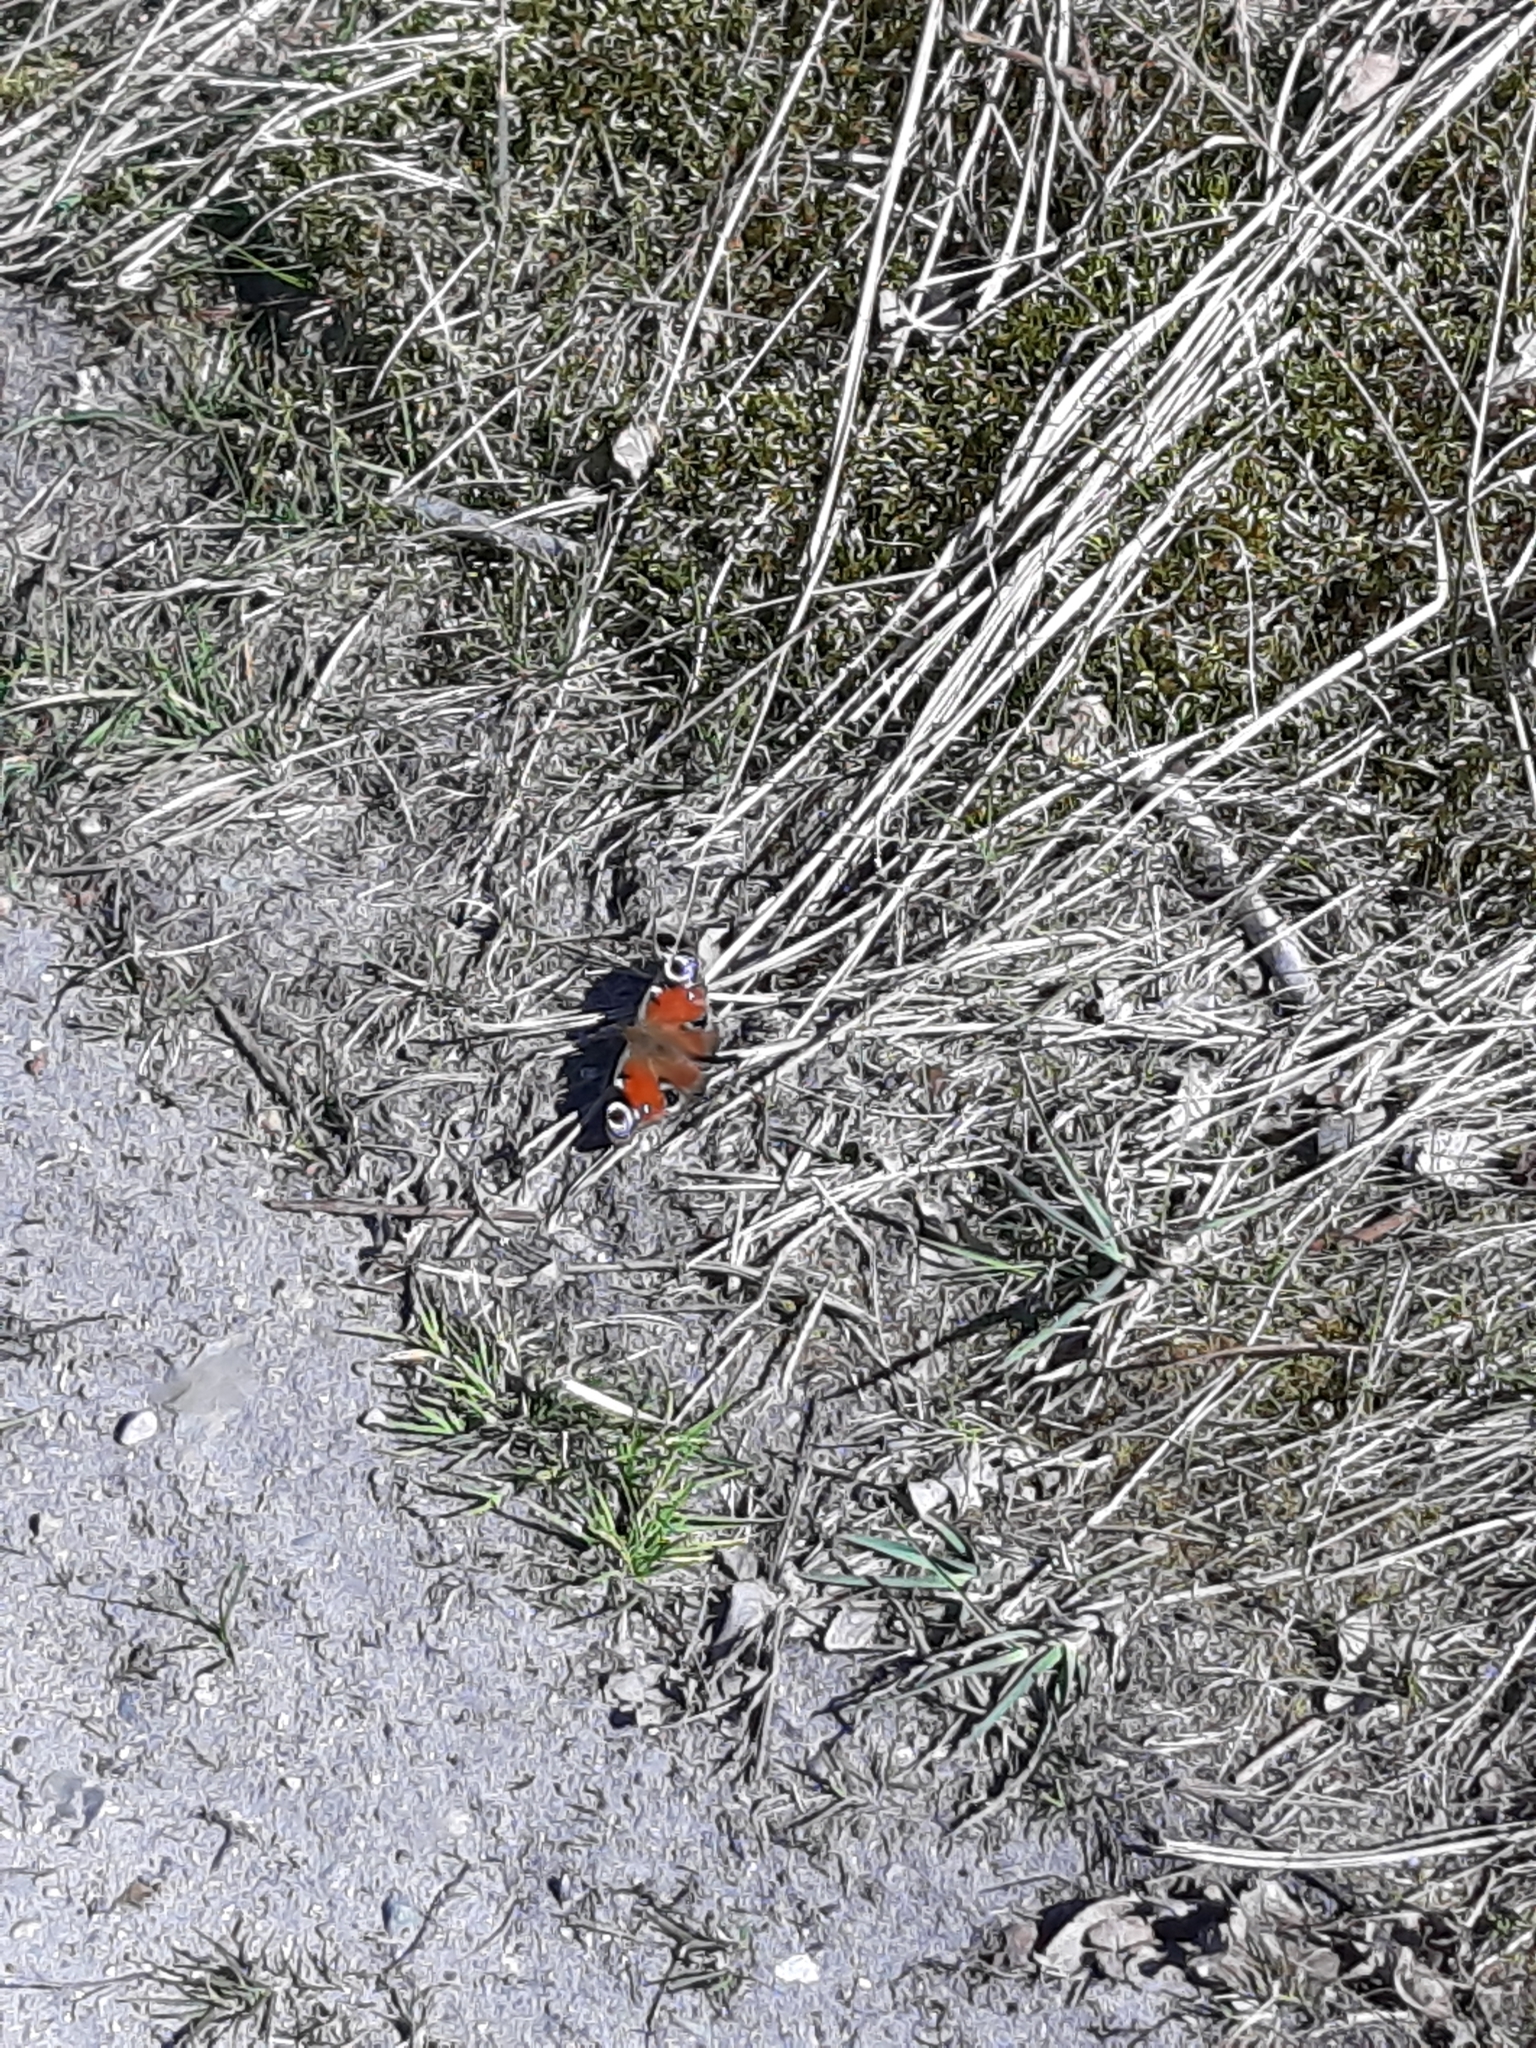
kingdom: Animalia
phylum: Arthropoda
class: Insecta
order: Lepidoptera
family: Nymphalidae
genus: Aglais
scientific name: Aglais io
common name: Peacock
